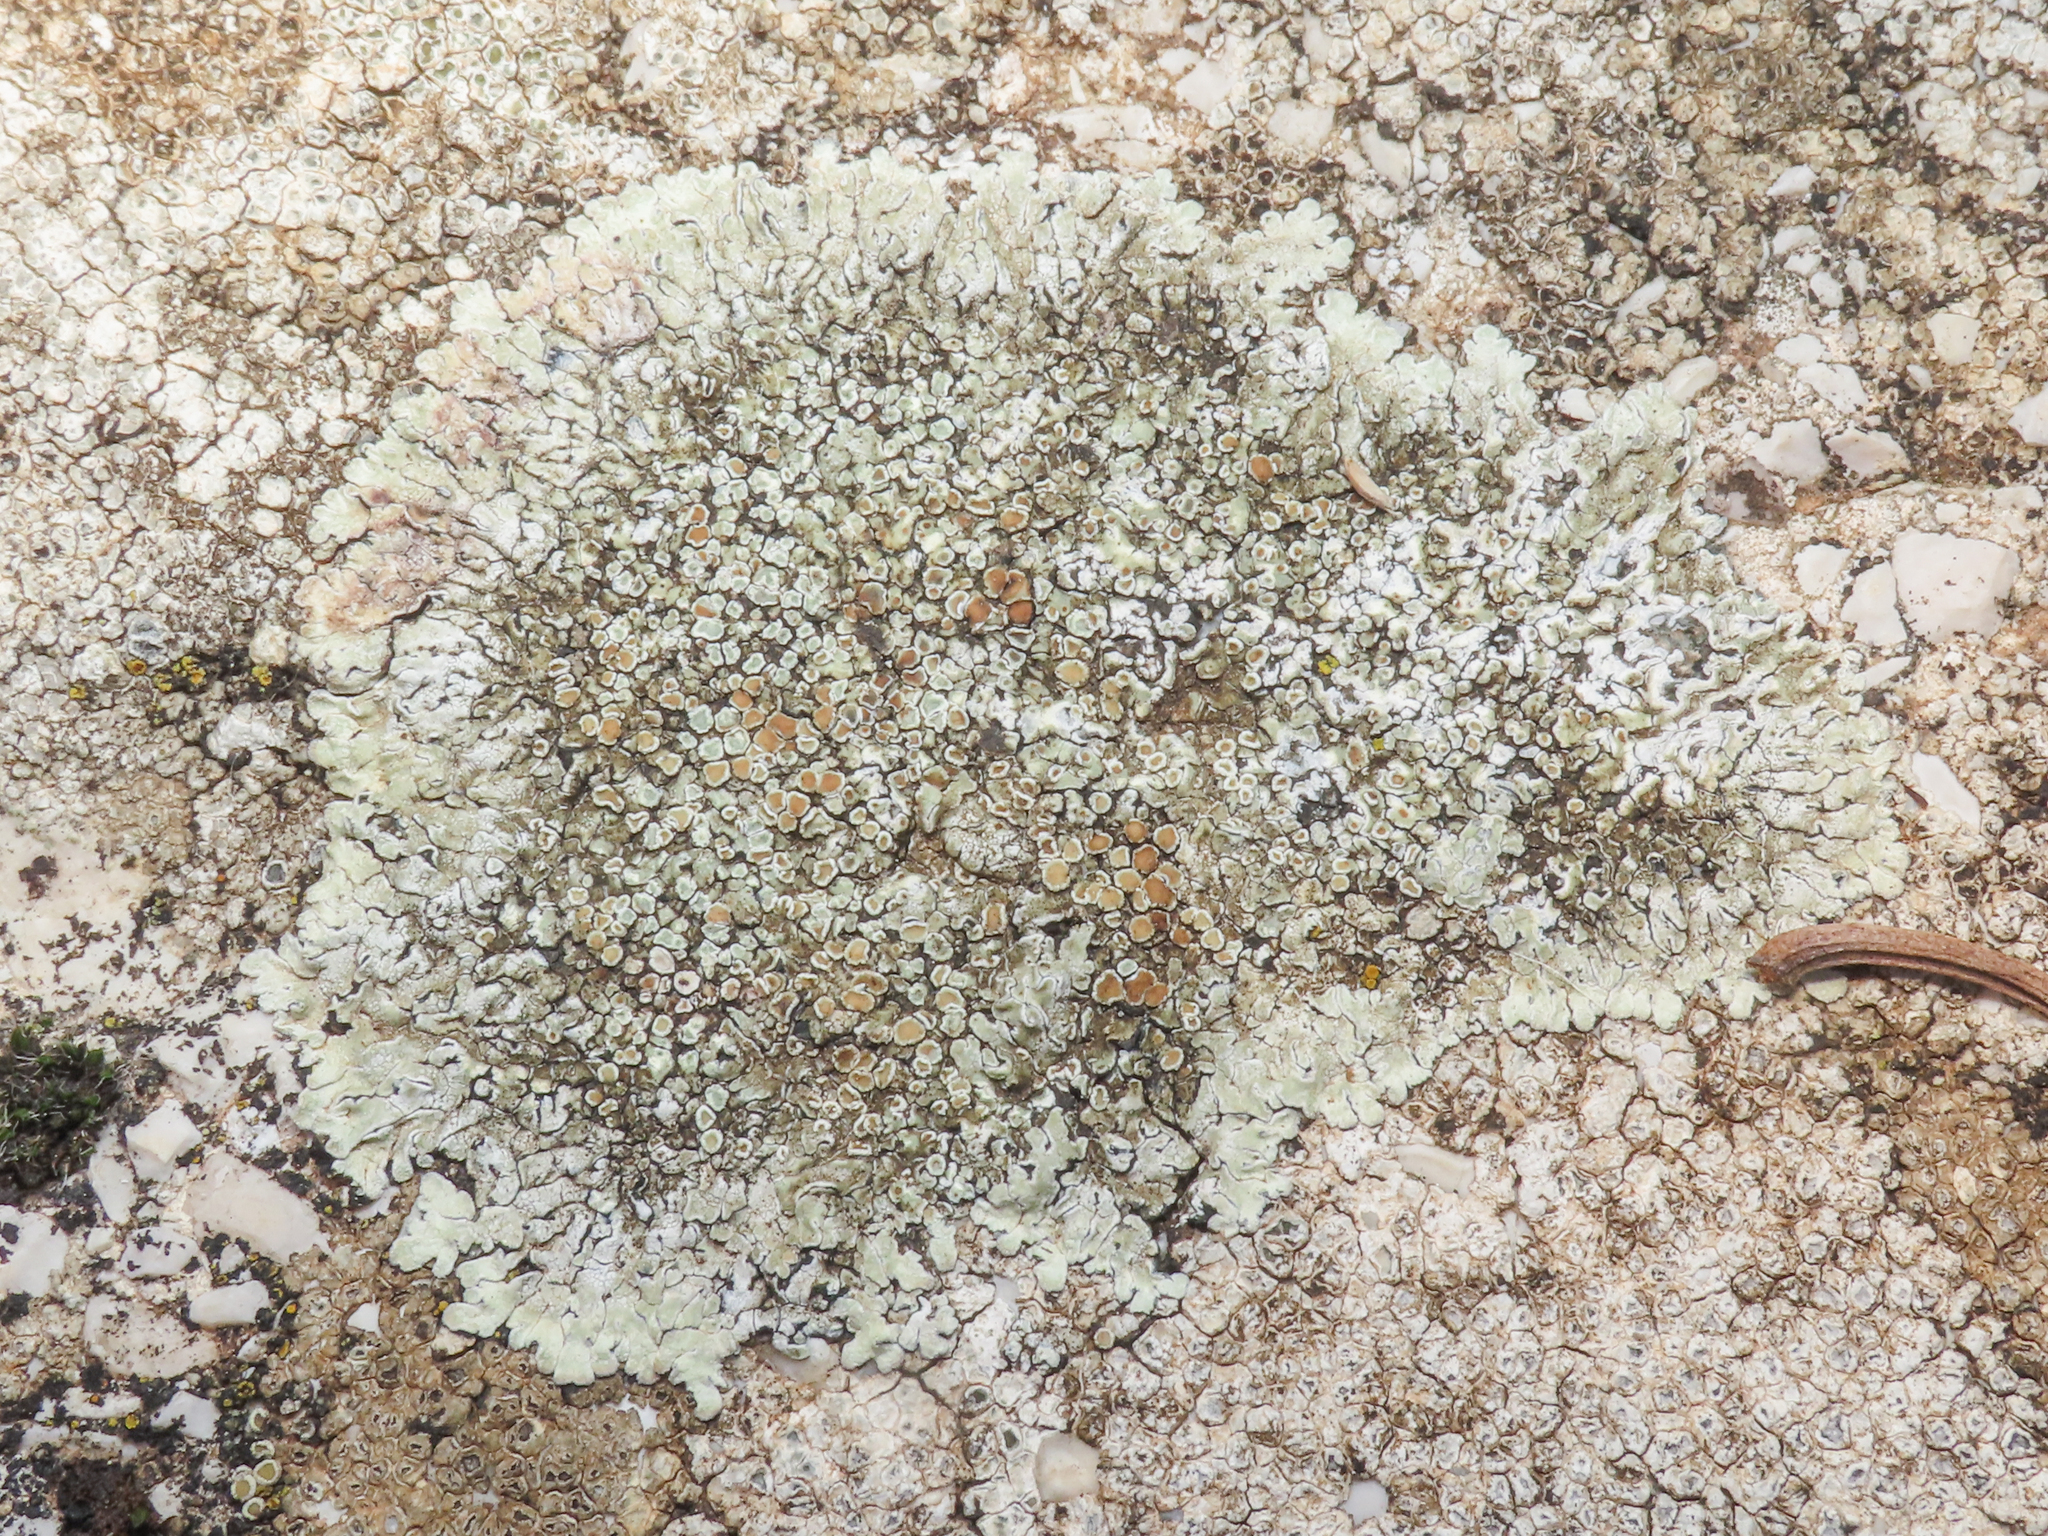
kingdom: Fungi
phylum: Ascomycota
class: Lecanoromycetes
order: Lecanorales
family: Lecanoraceae
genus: Protoparmeliopsis
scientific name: Protoparmeliopsis muralis
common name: Stonewall rim lichen
